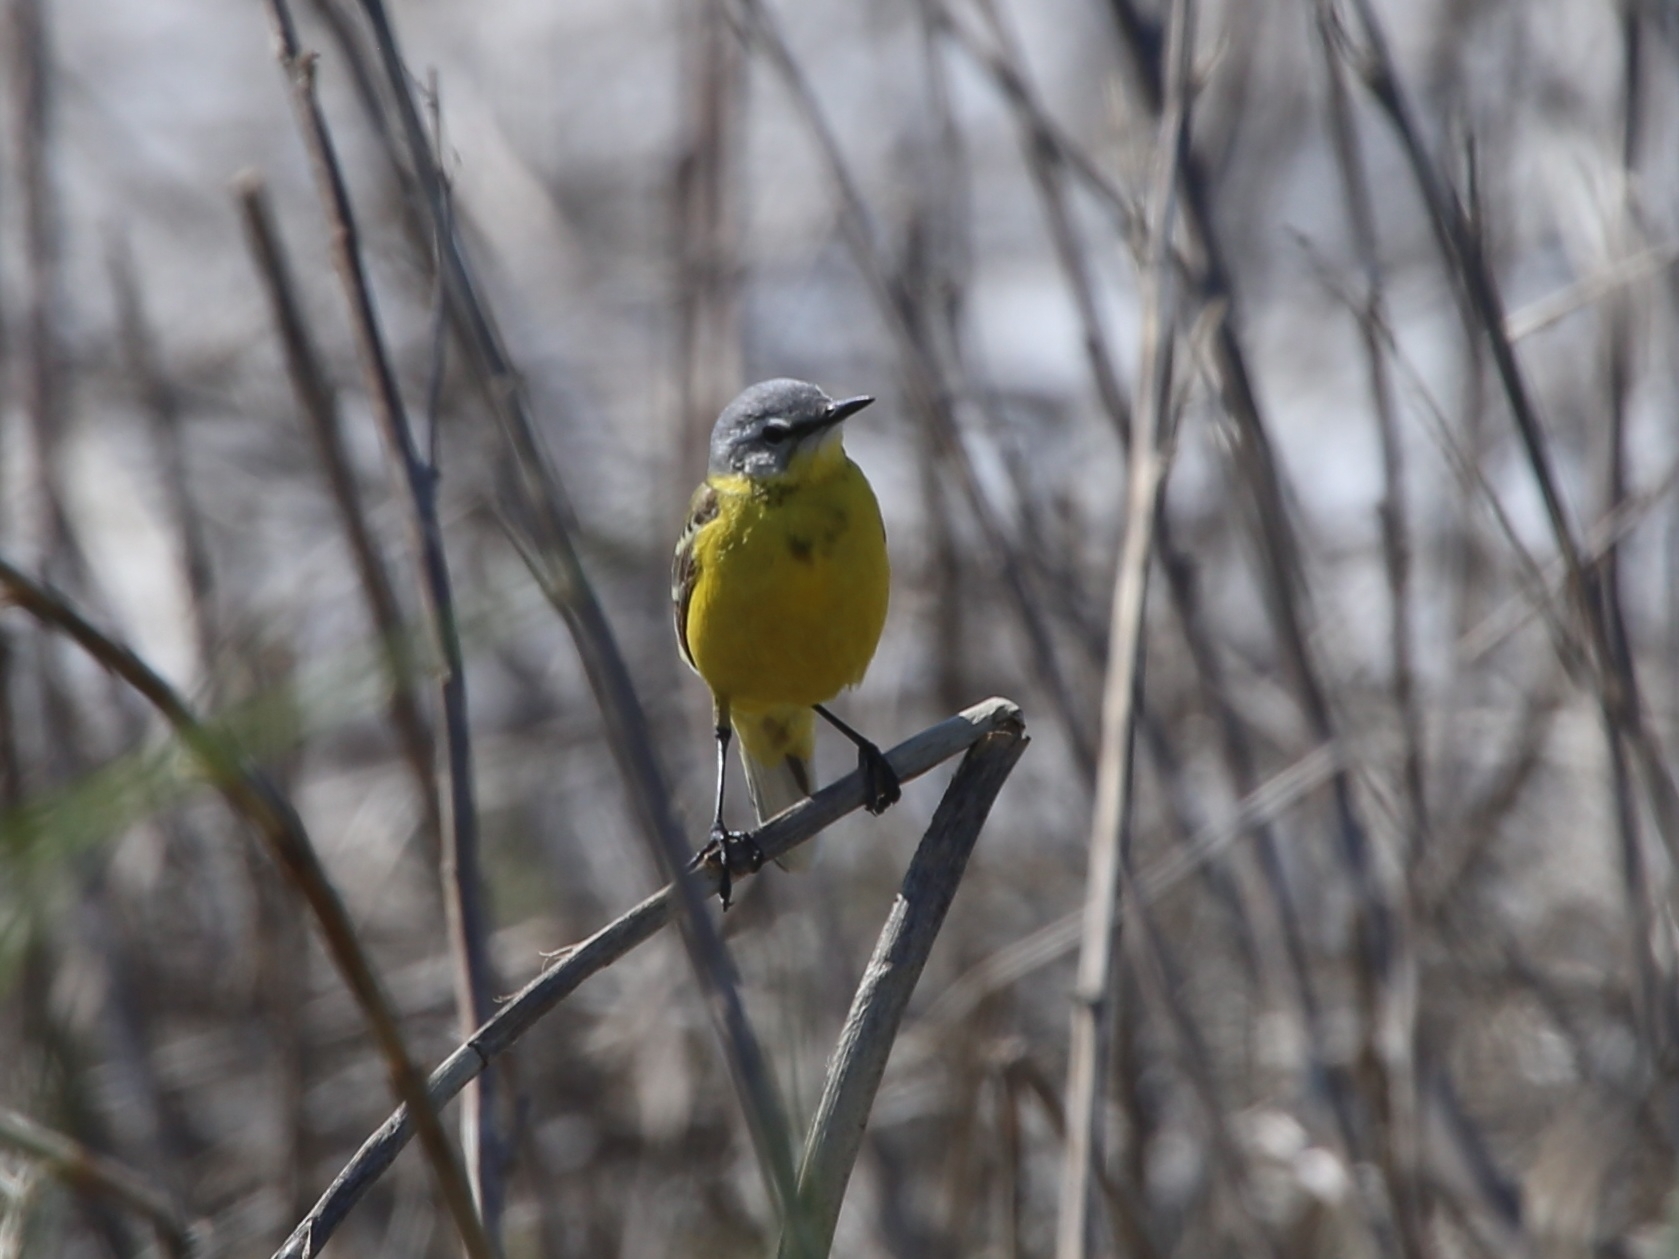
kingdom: Animalia
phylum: Chordata
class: Aves
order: Passeriformes
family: Motacillidae
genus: Motacilla
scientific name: Motacilla flava
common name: Western yellow wagtail
